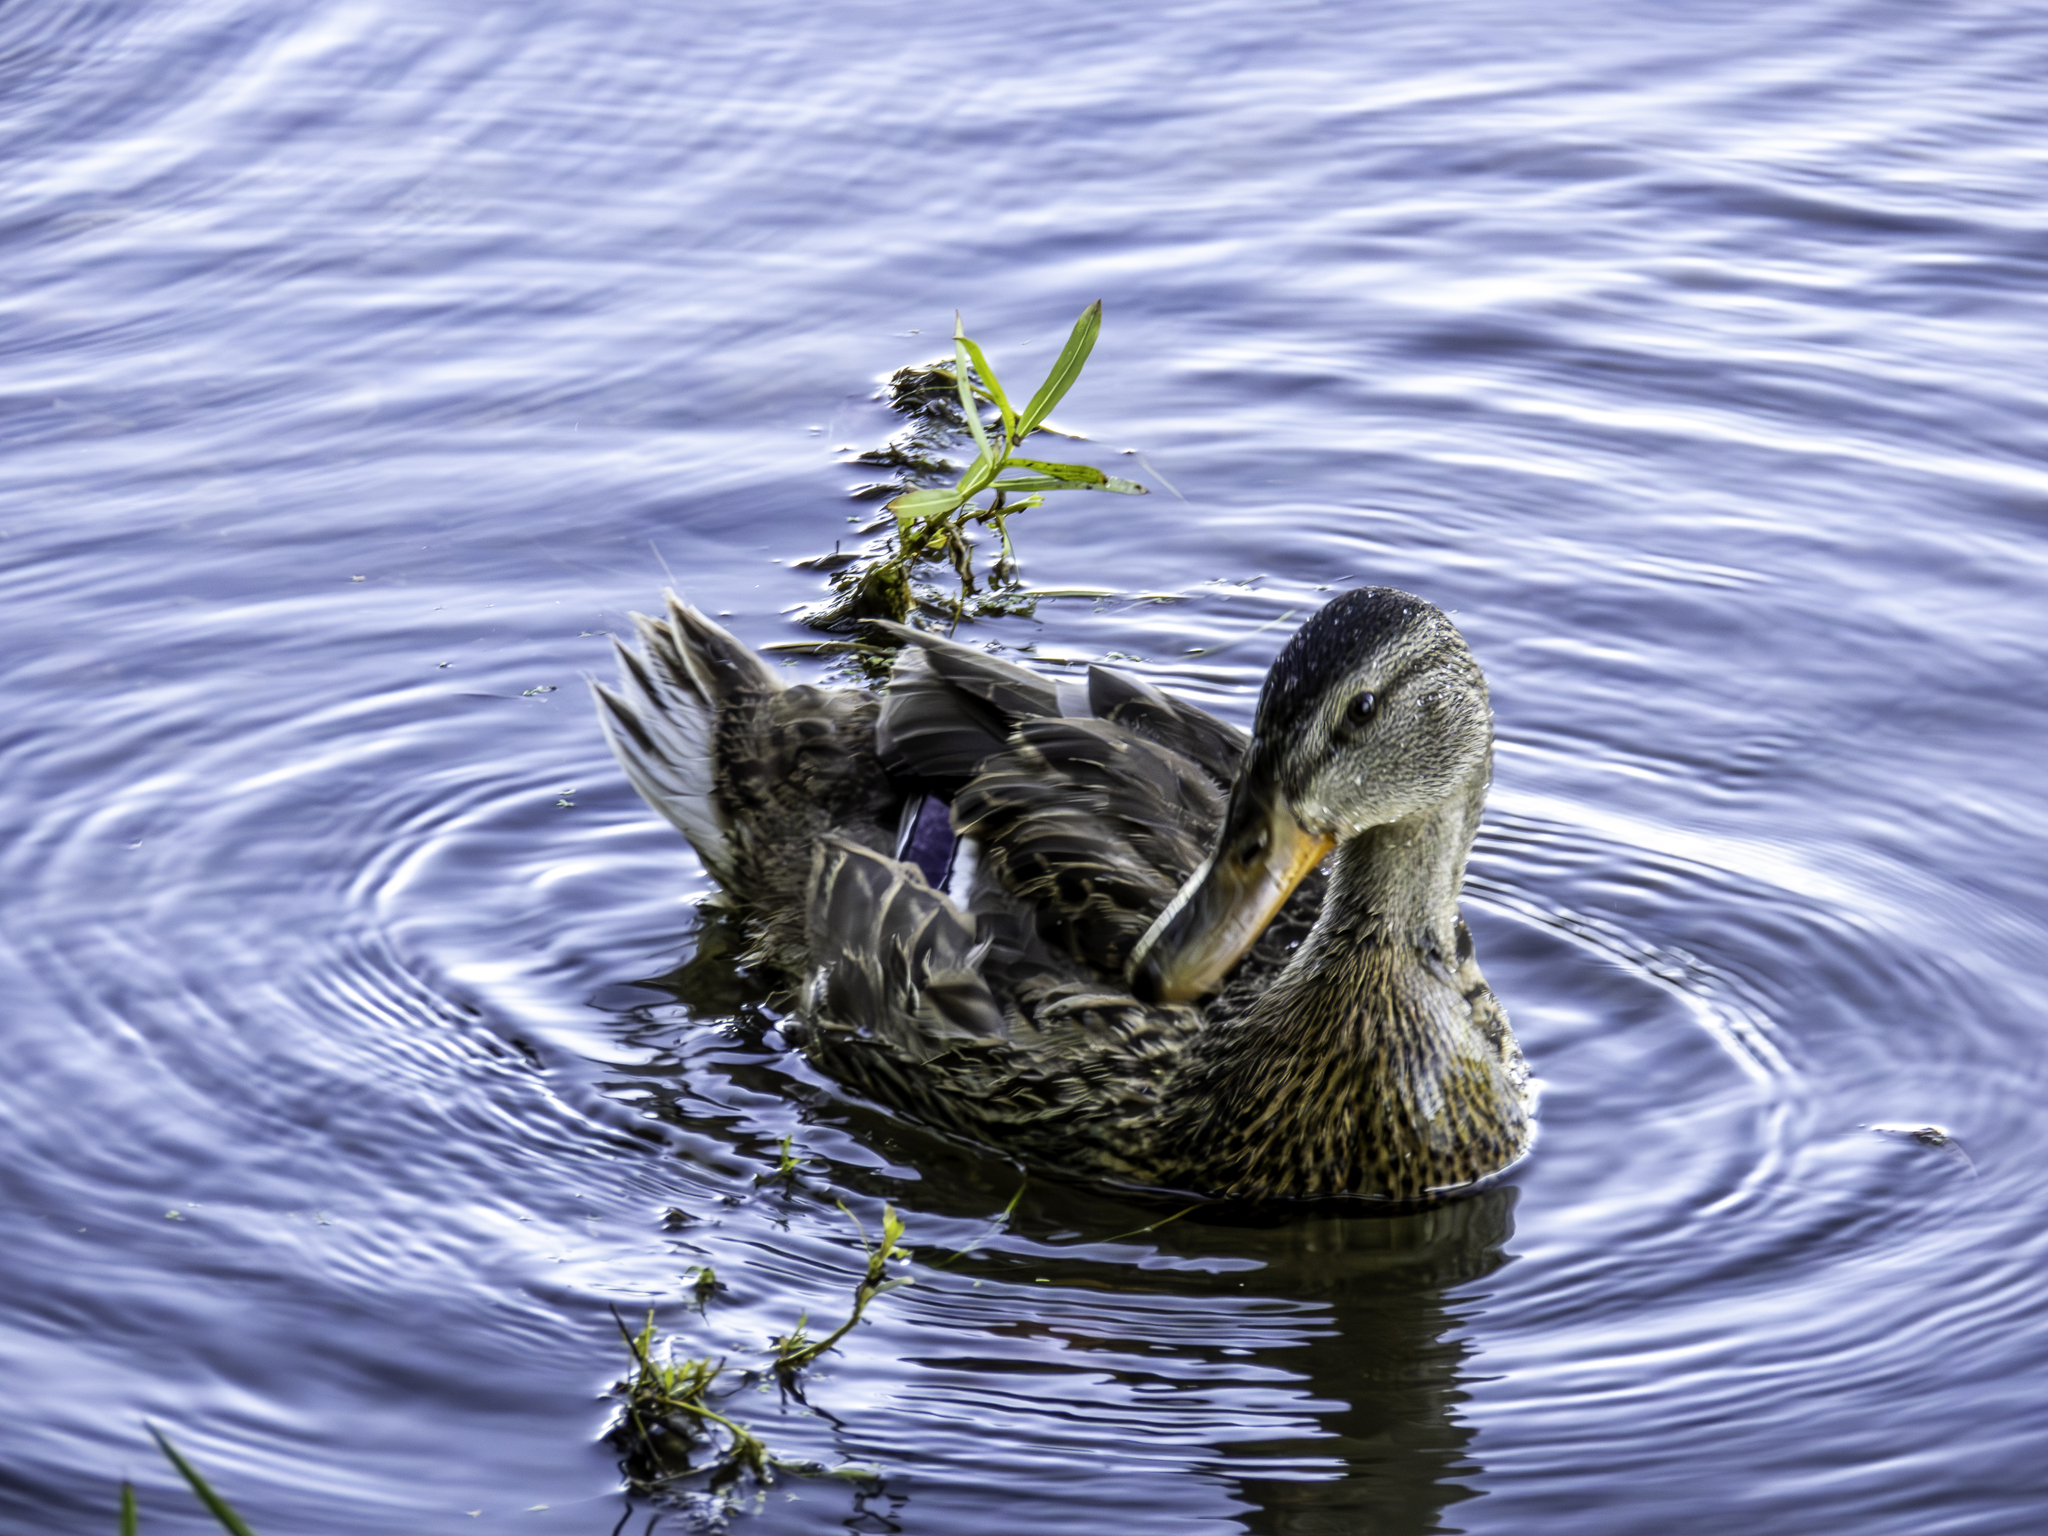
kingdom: Animalia
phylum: Chordata
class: Aves
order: Anseriformes
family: Anatidae
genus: Anas
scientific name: Anas platyrhynchos
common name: Mallard
